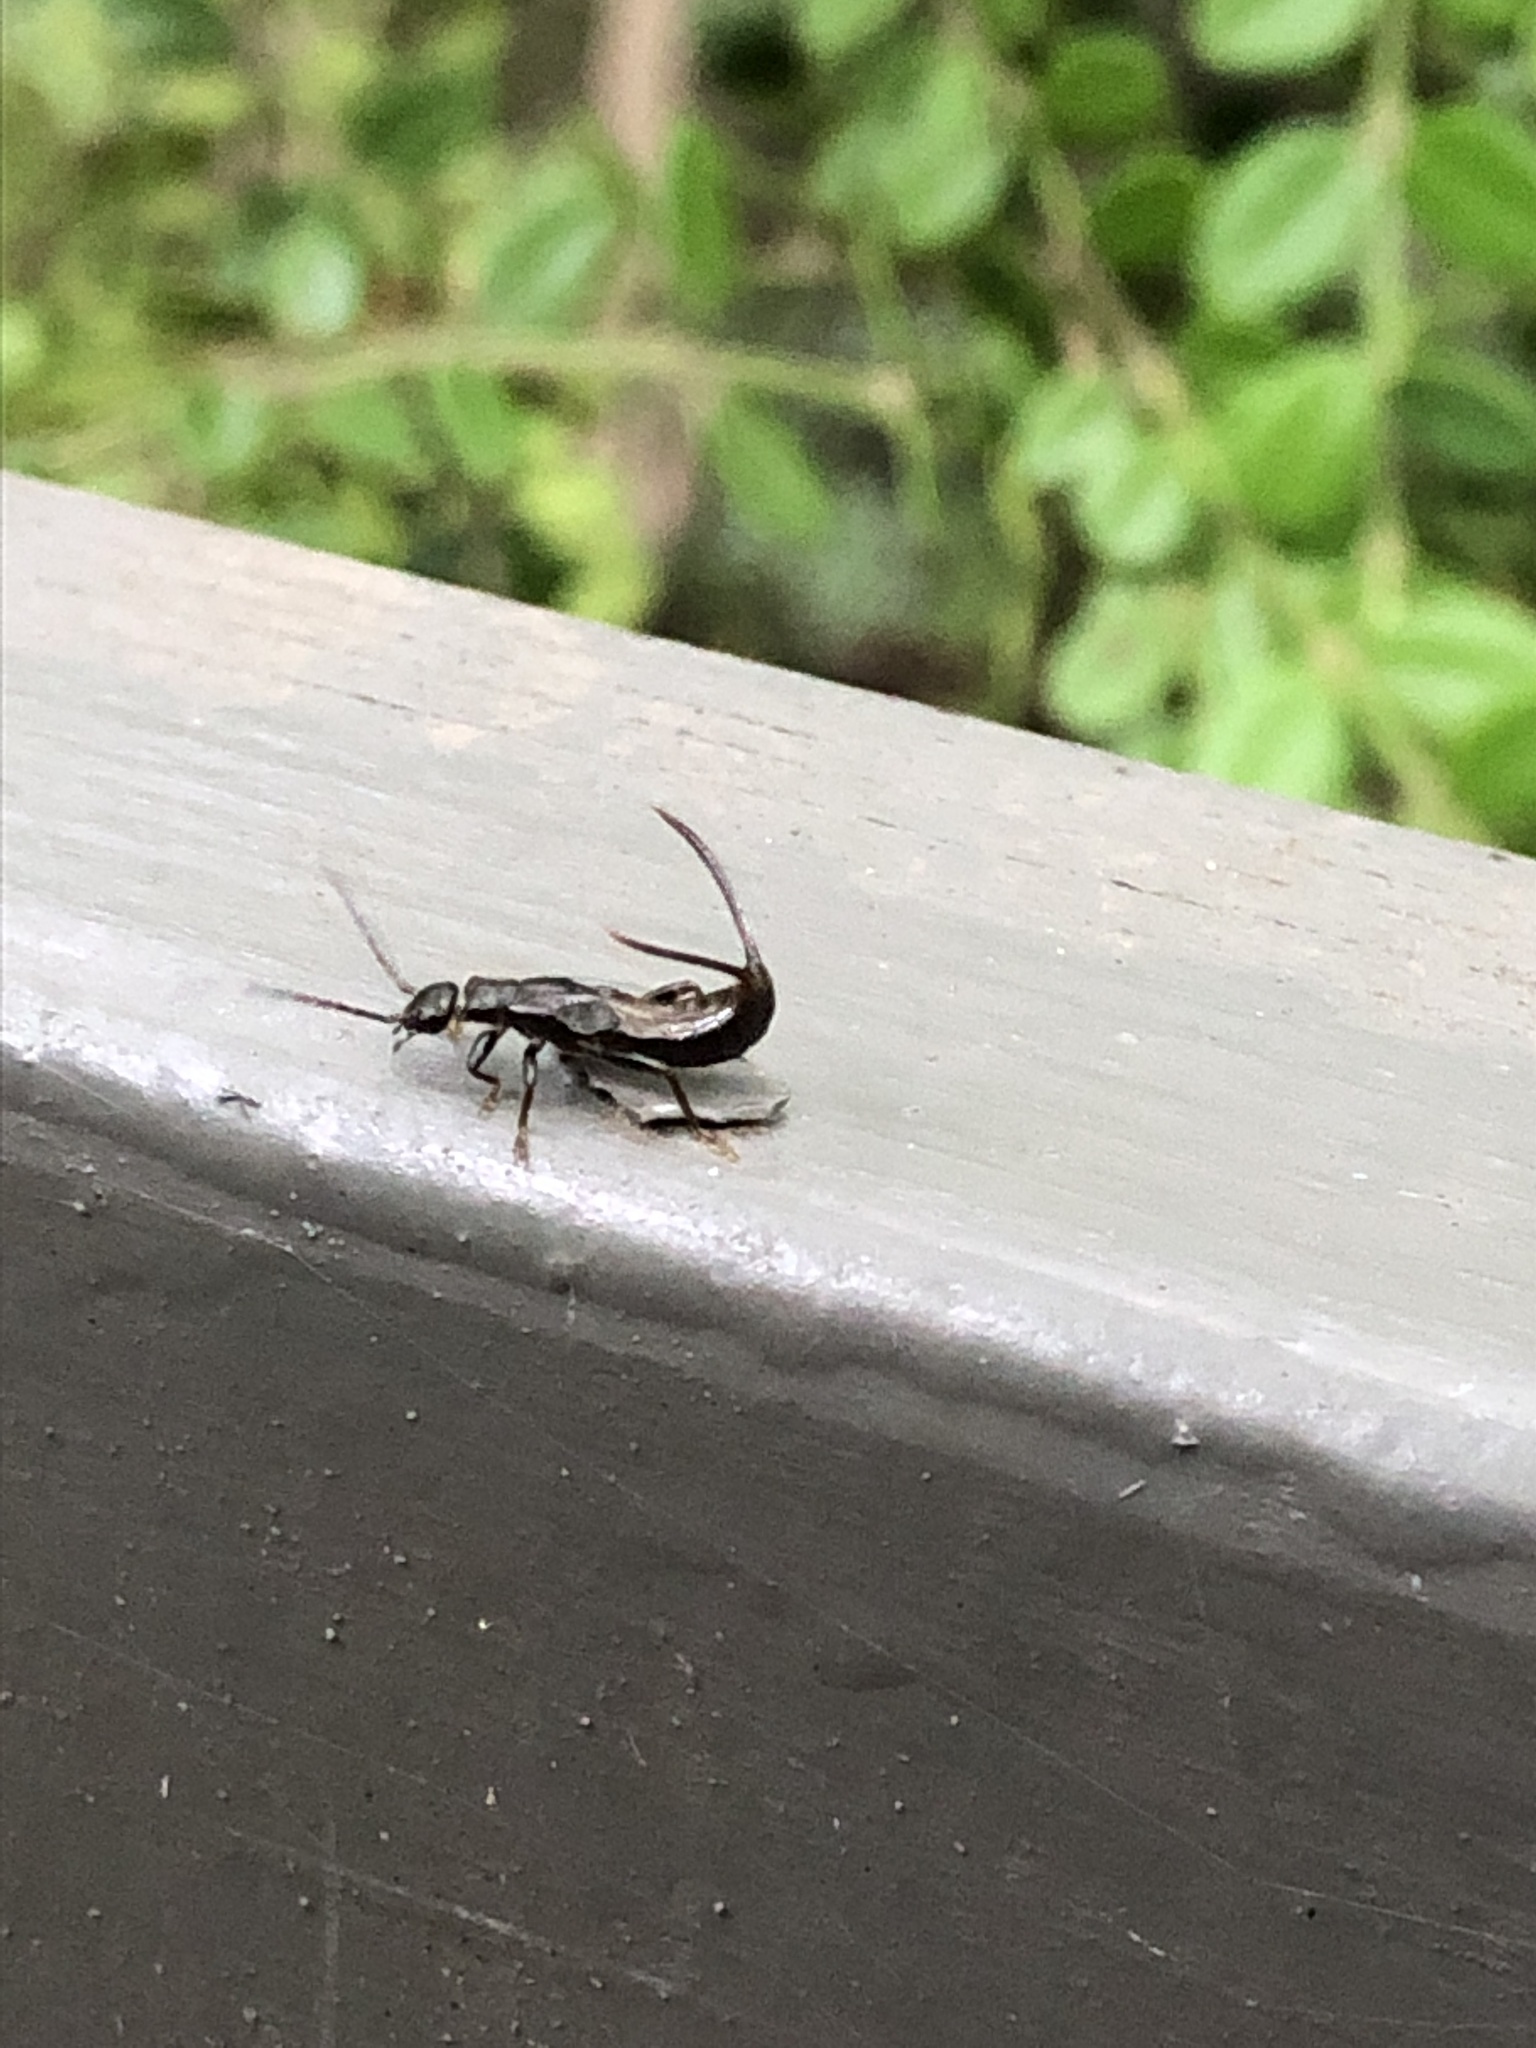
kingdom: Animalia
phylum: Arthropoda
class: Insecta
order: Dermaptera
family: Forficulidae
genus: Timomenus
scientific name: Timomenus komarovi
